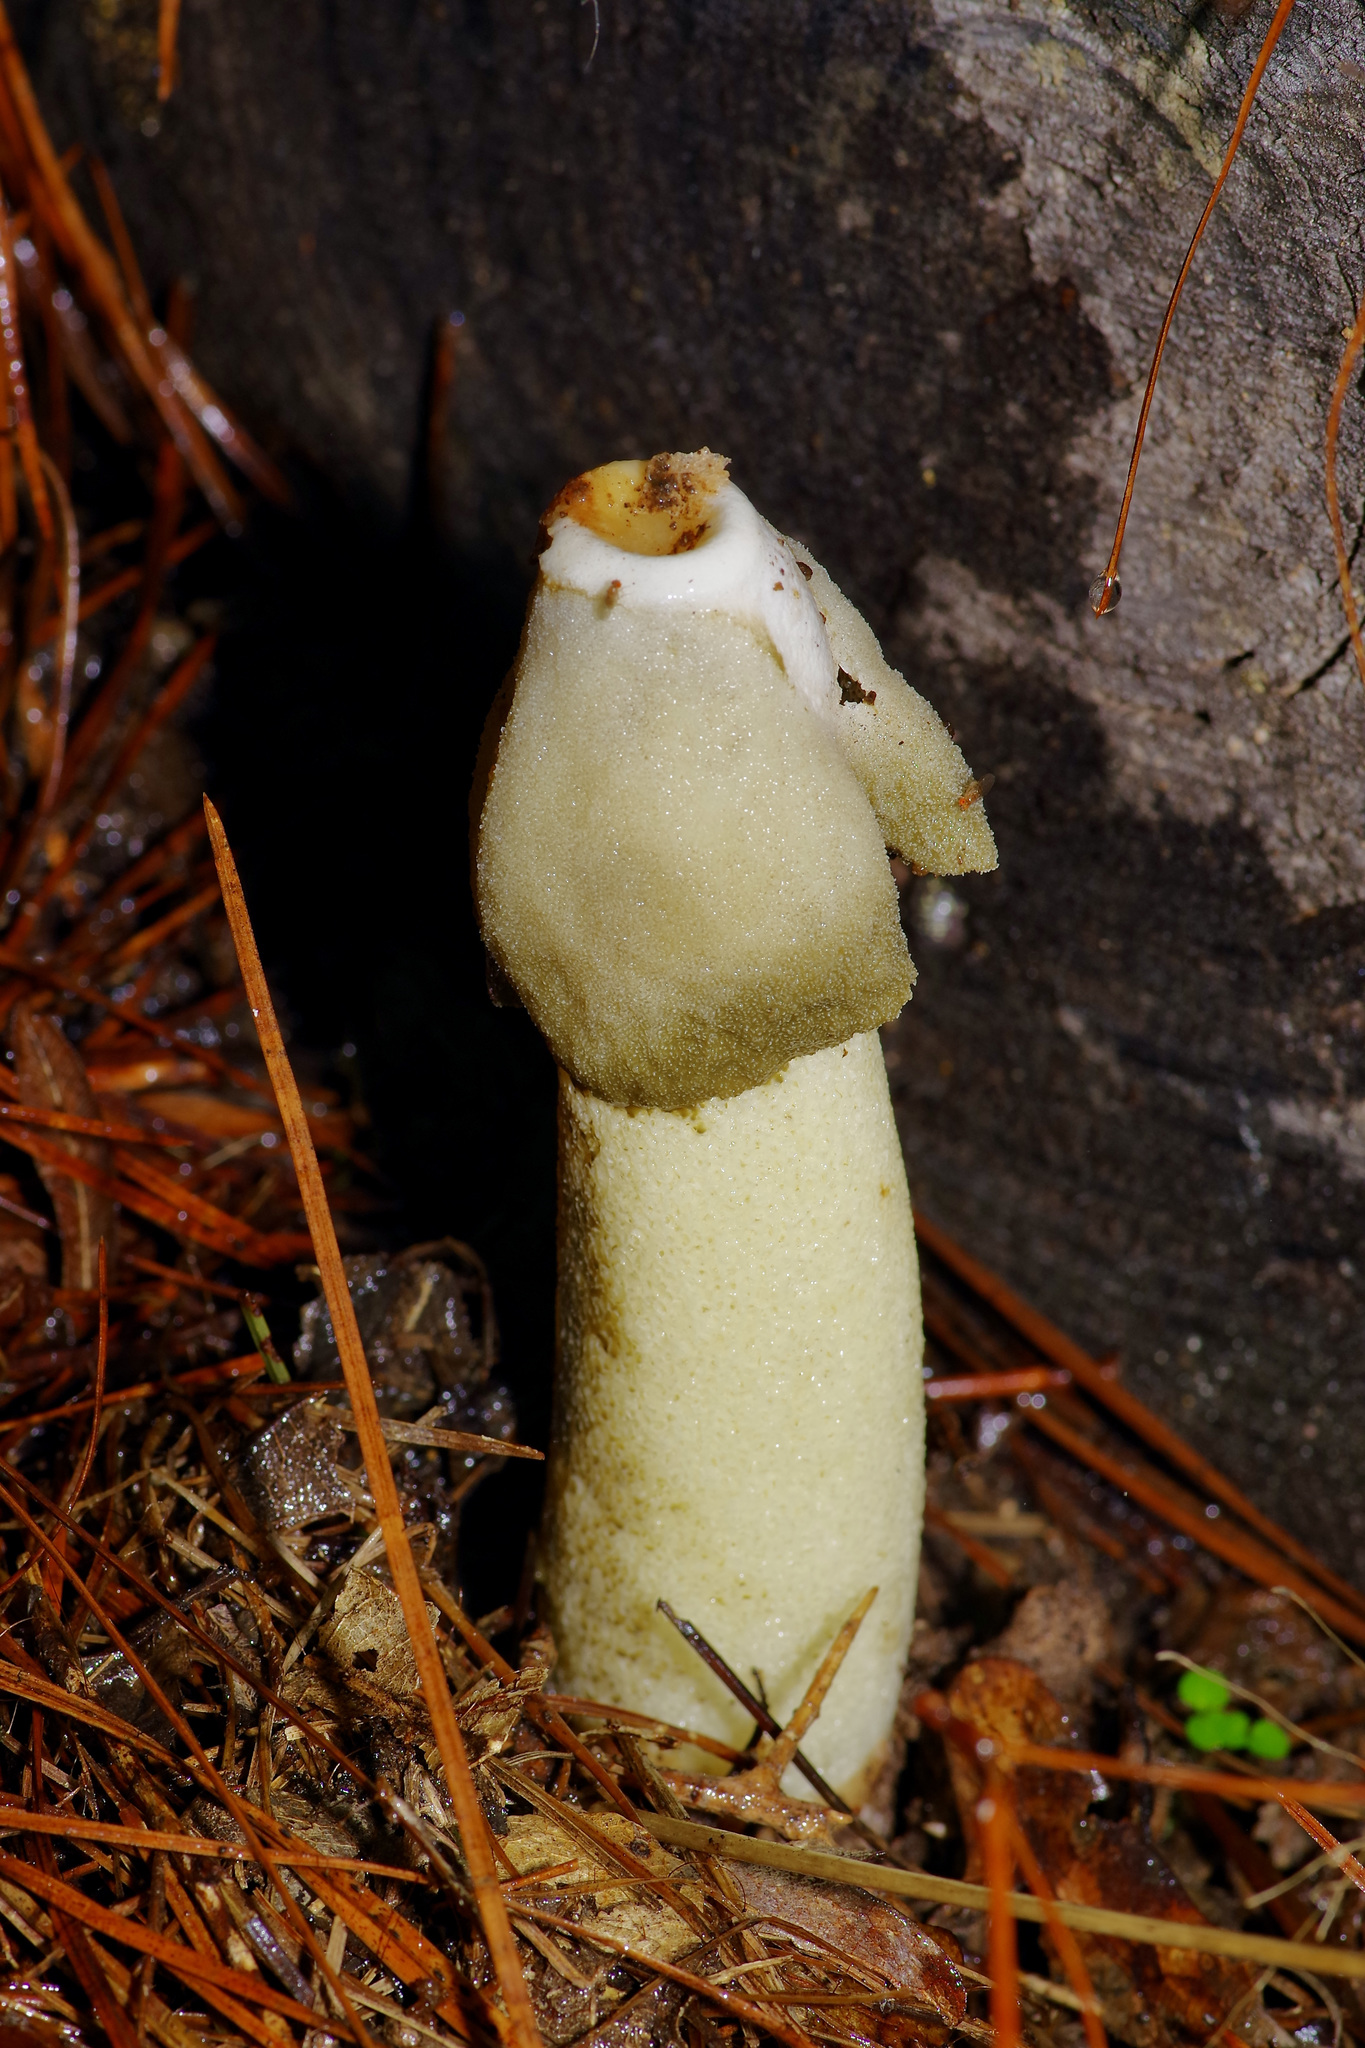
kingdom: Fungi
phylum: Basidiomycota
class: Agaricomycetes
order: Phallales
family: Phallaceae
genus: Phallus
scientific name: Phallus ravenelii
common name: Ravenel's stinkhorn
